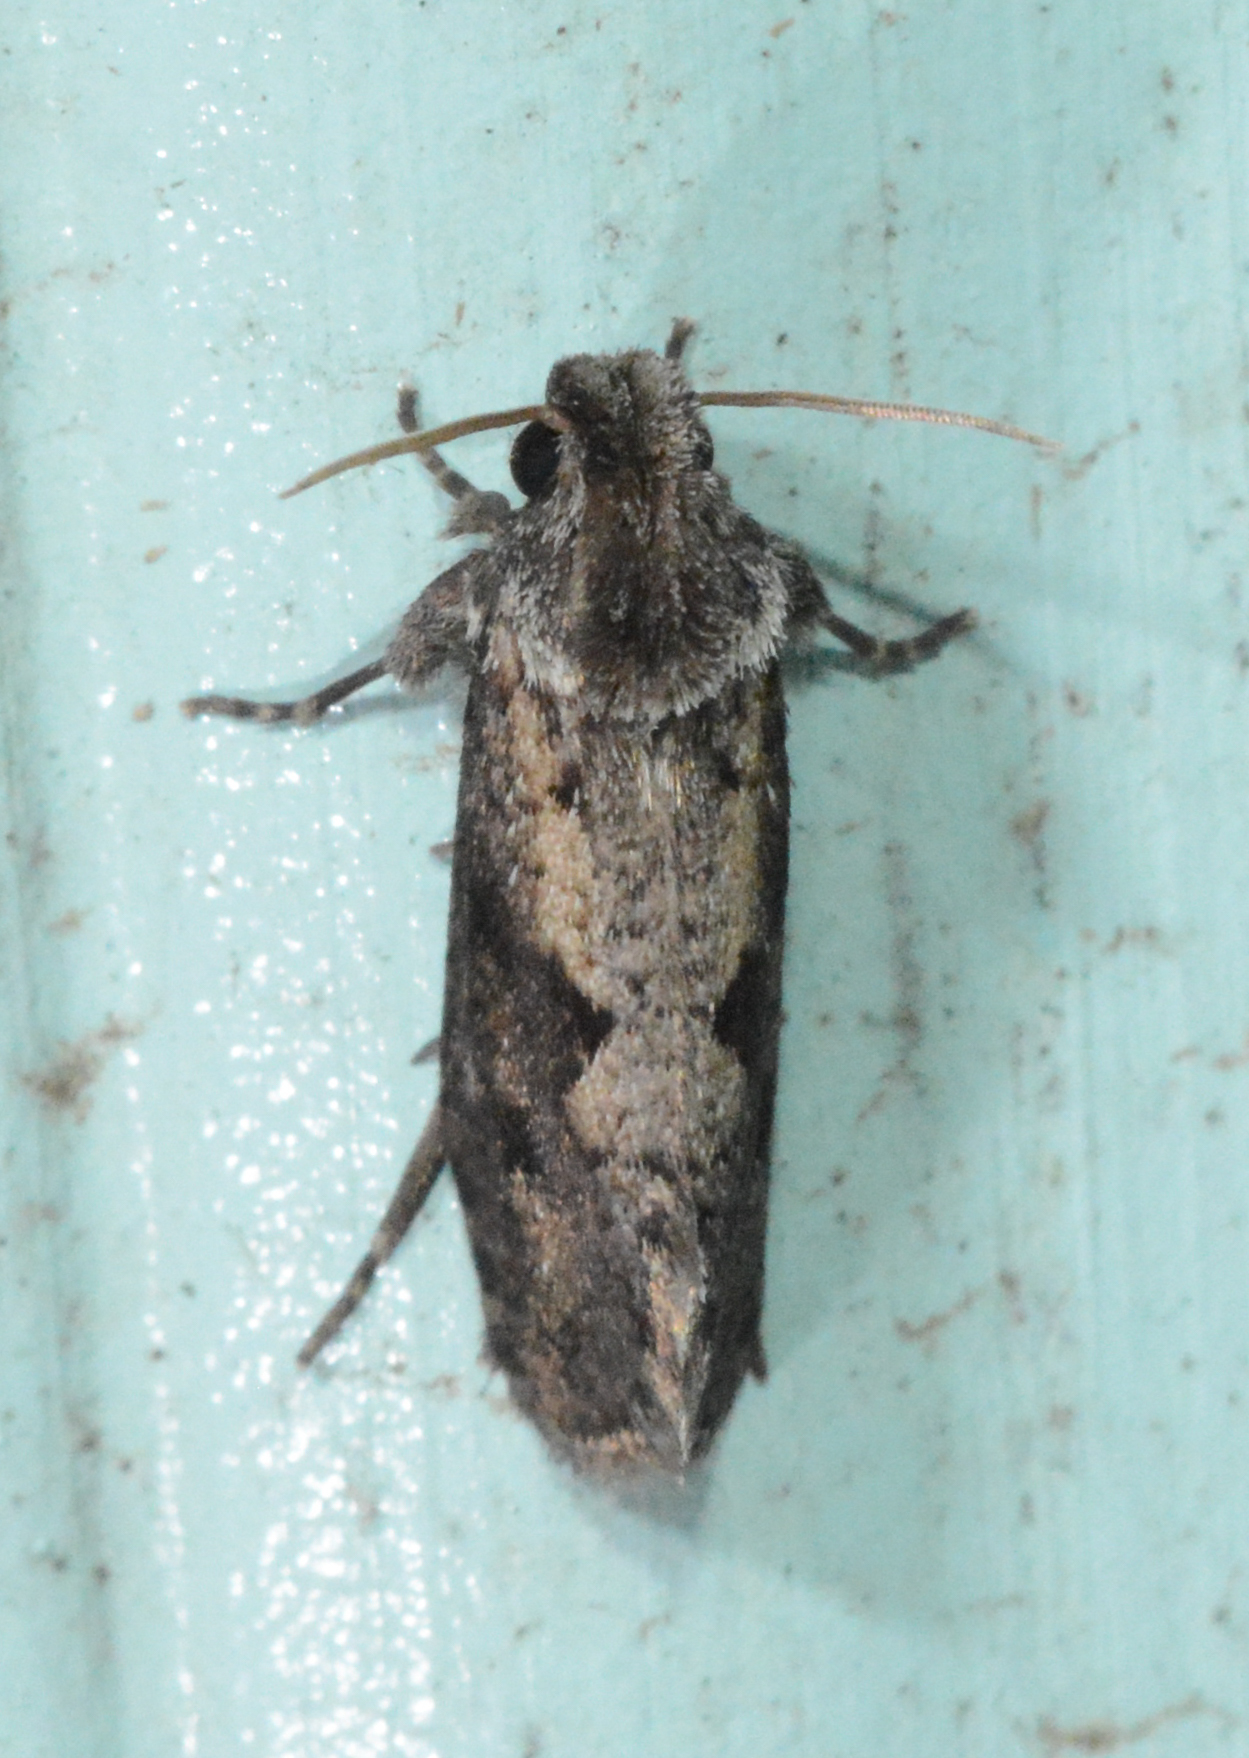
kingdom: Animalia
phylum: Arthropoda
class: Insecta
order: Lepidoptera
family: Tineidae
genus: Acrolophus
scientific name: Acrolophus popeanella
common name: Clemens' grass tubeworm moth
